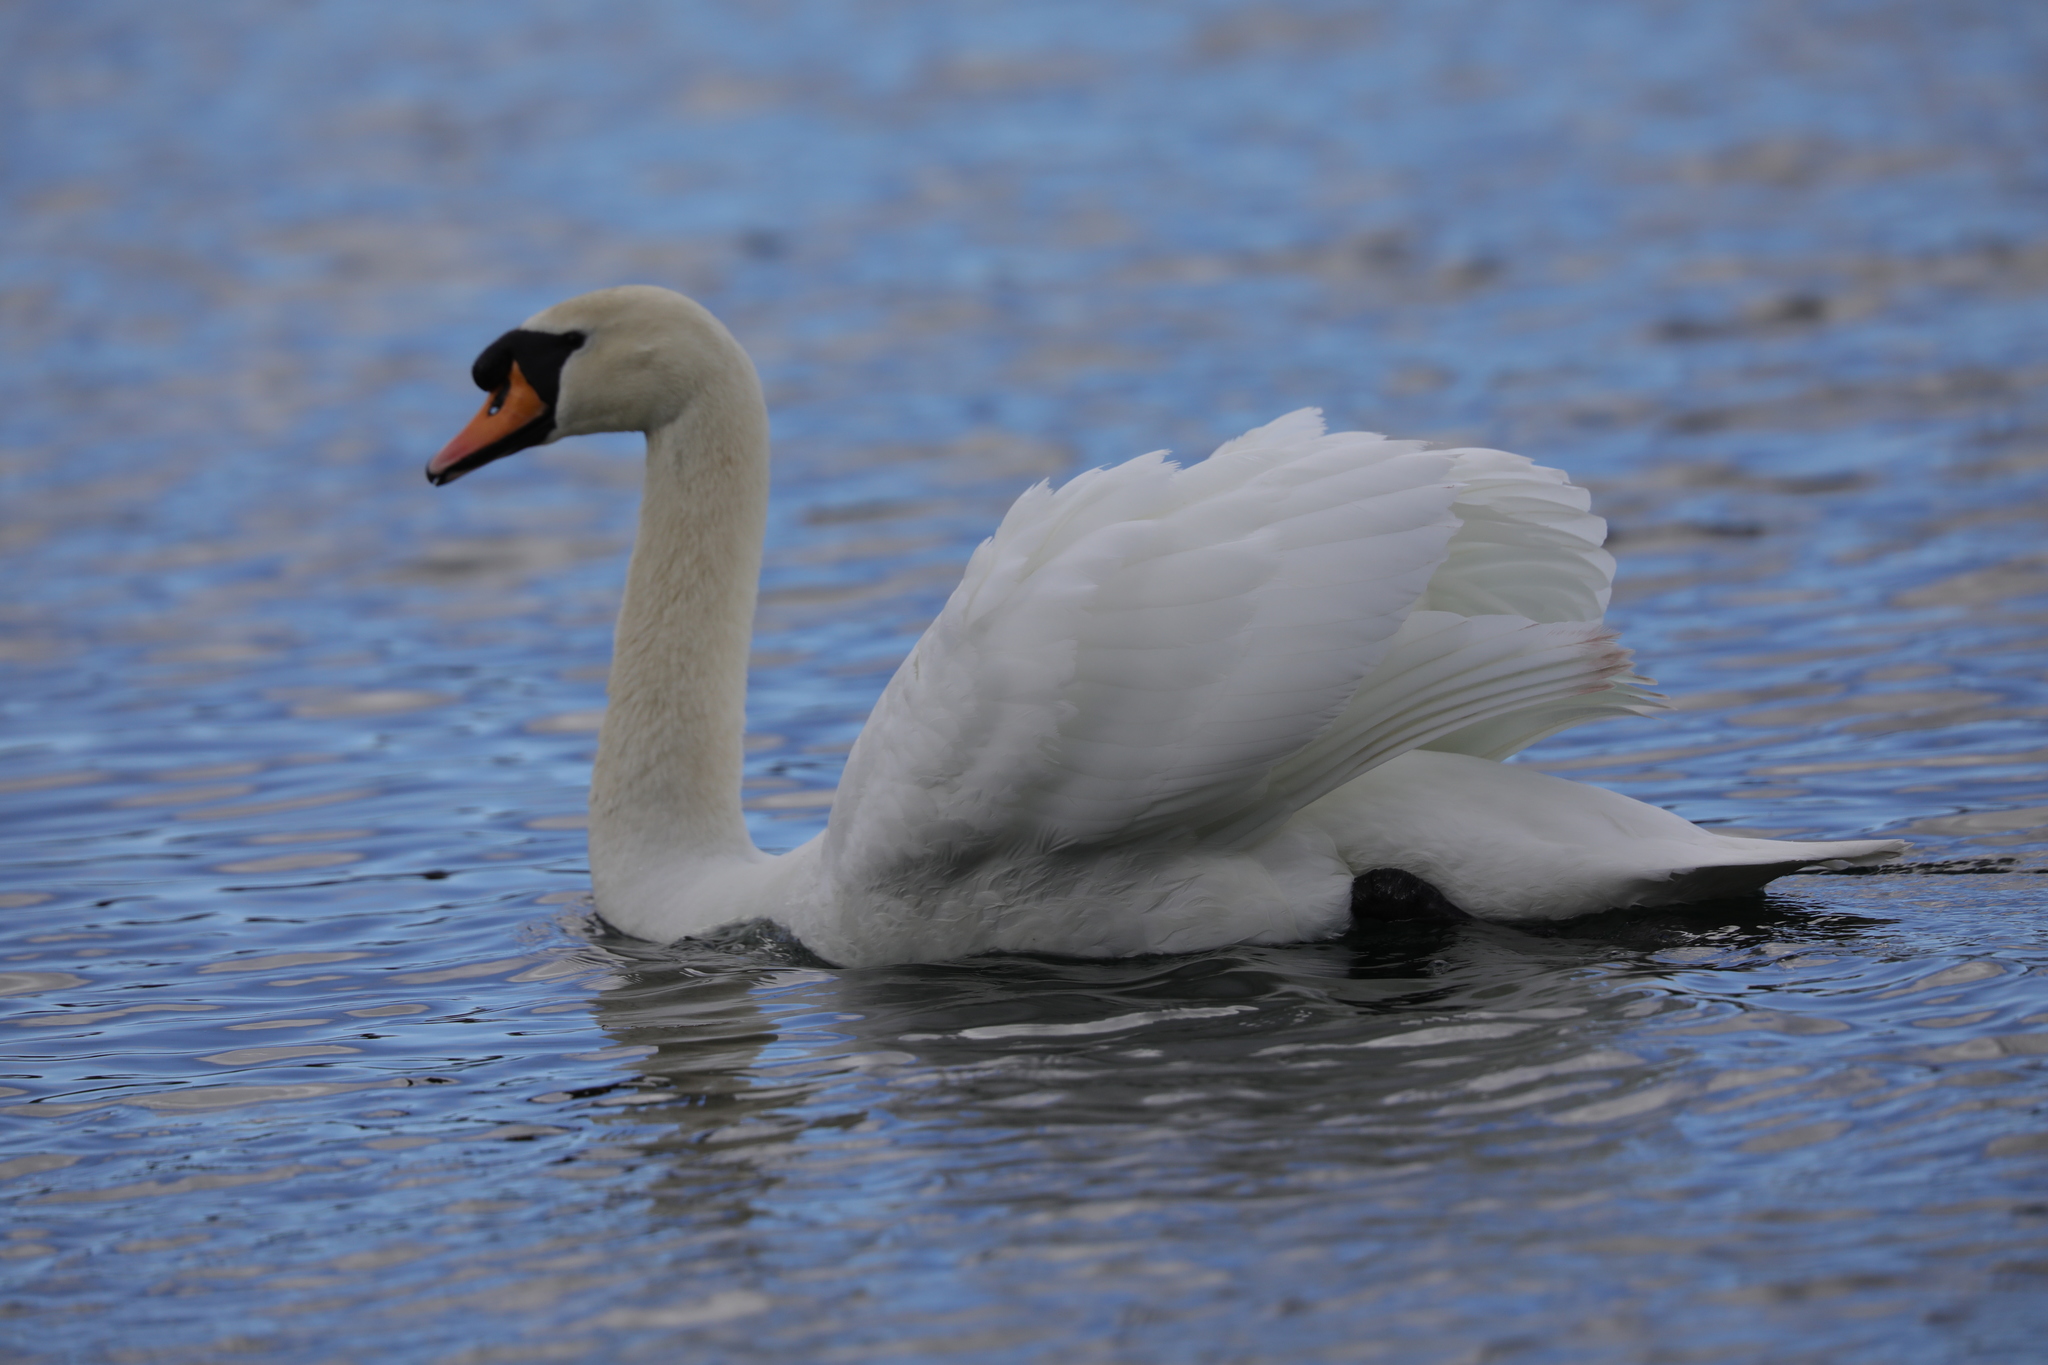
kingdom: Animalia
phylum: Chordata
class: Aves
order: Anseriformes
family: Anatidae
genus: Cygnus
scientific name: Cygnus olor
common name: Mute swan
